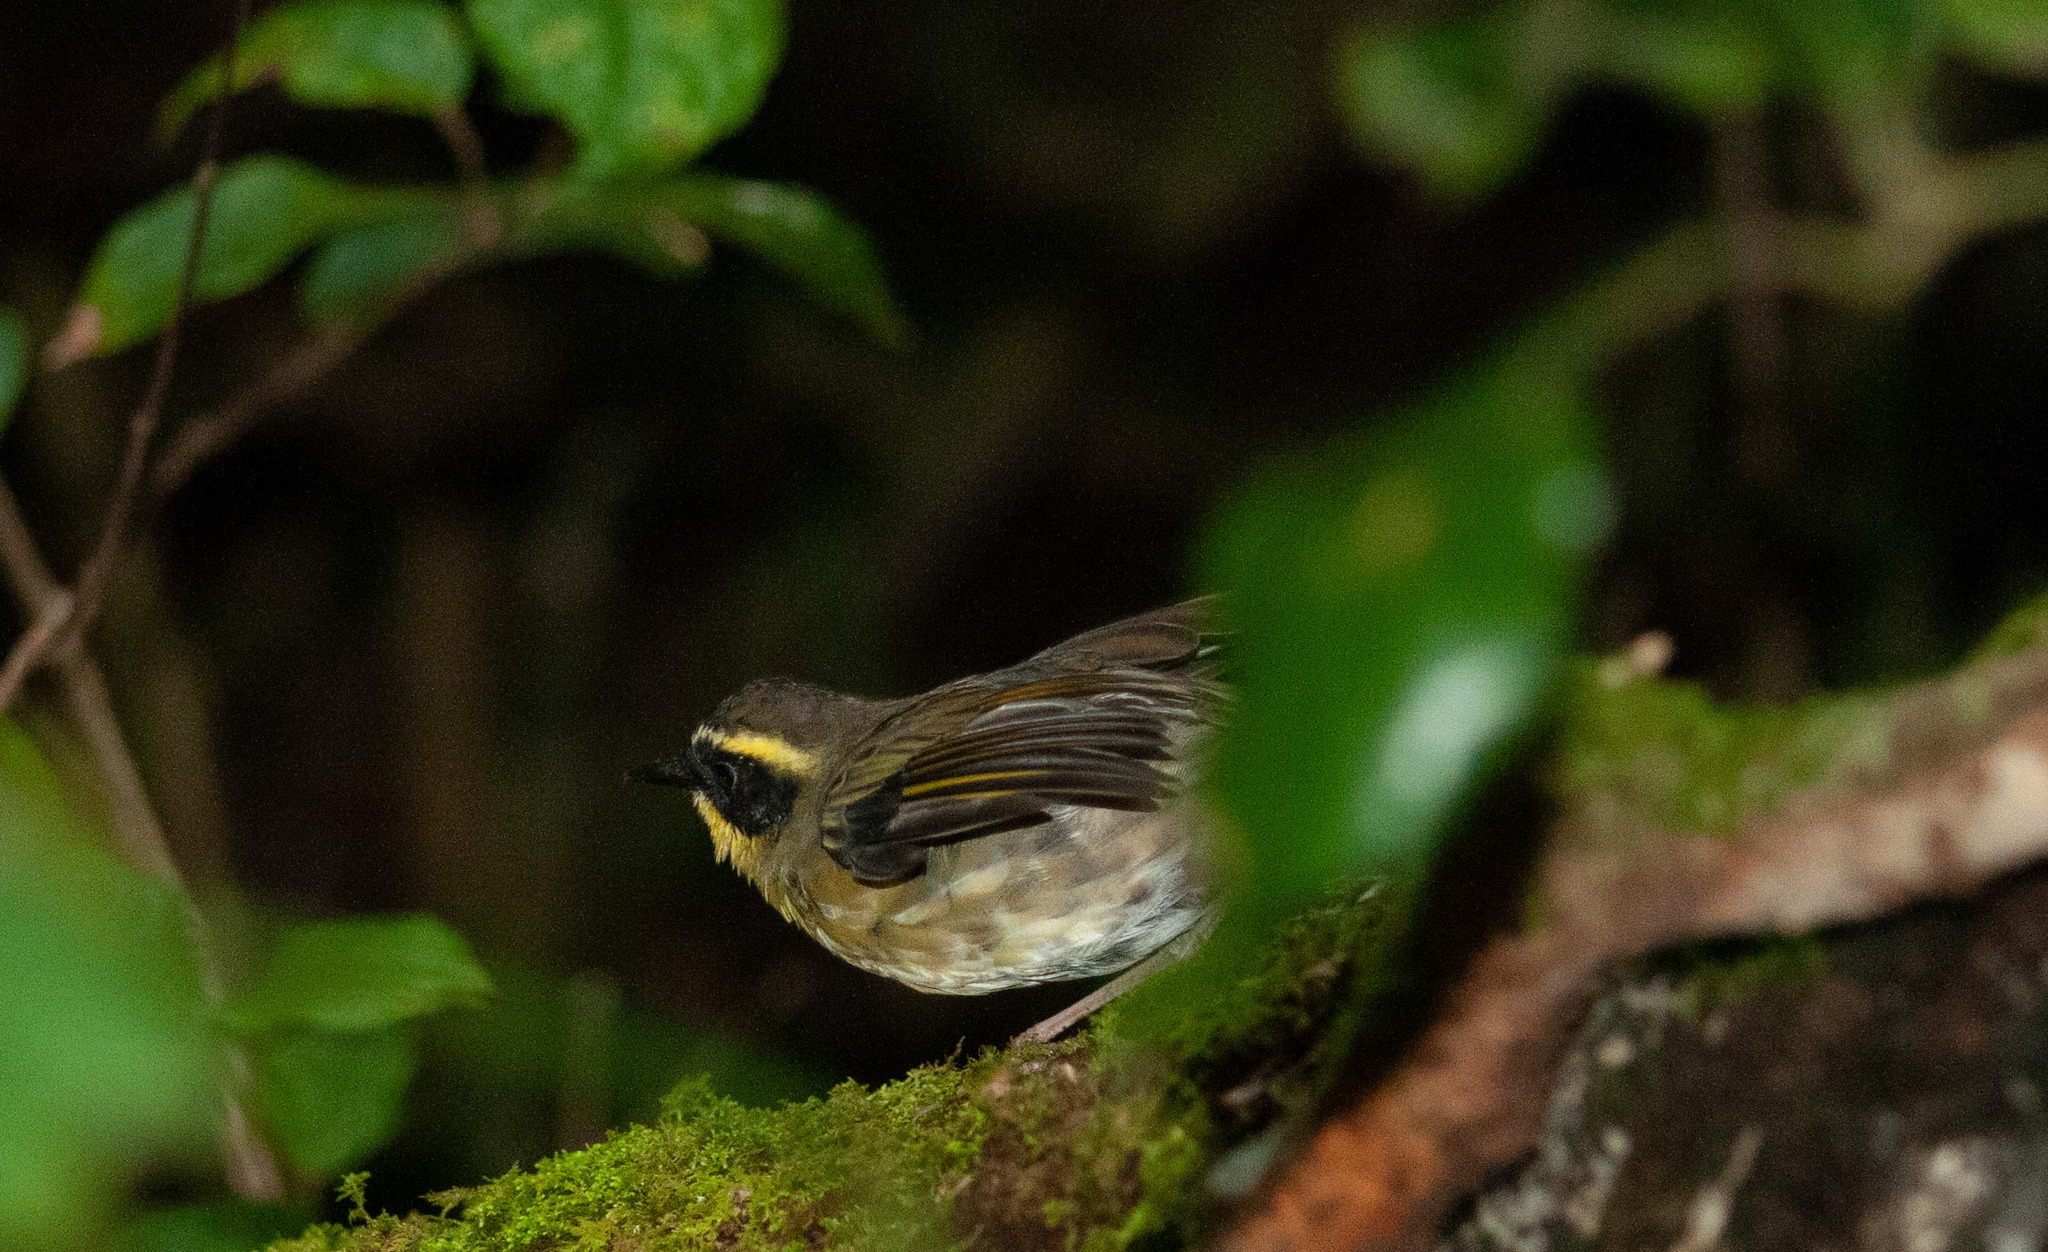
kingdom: Animalia
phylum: Chordata
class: Aves
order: Passeriformes
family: Acanthizidae
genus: Sericornis
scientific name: Sericornis citreogularis
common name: Yellow-throated scrubwren
